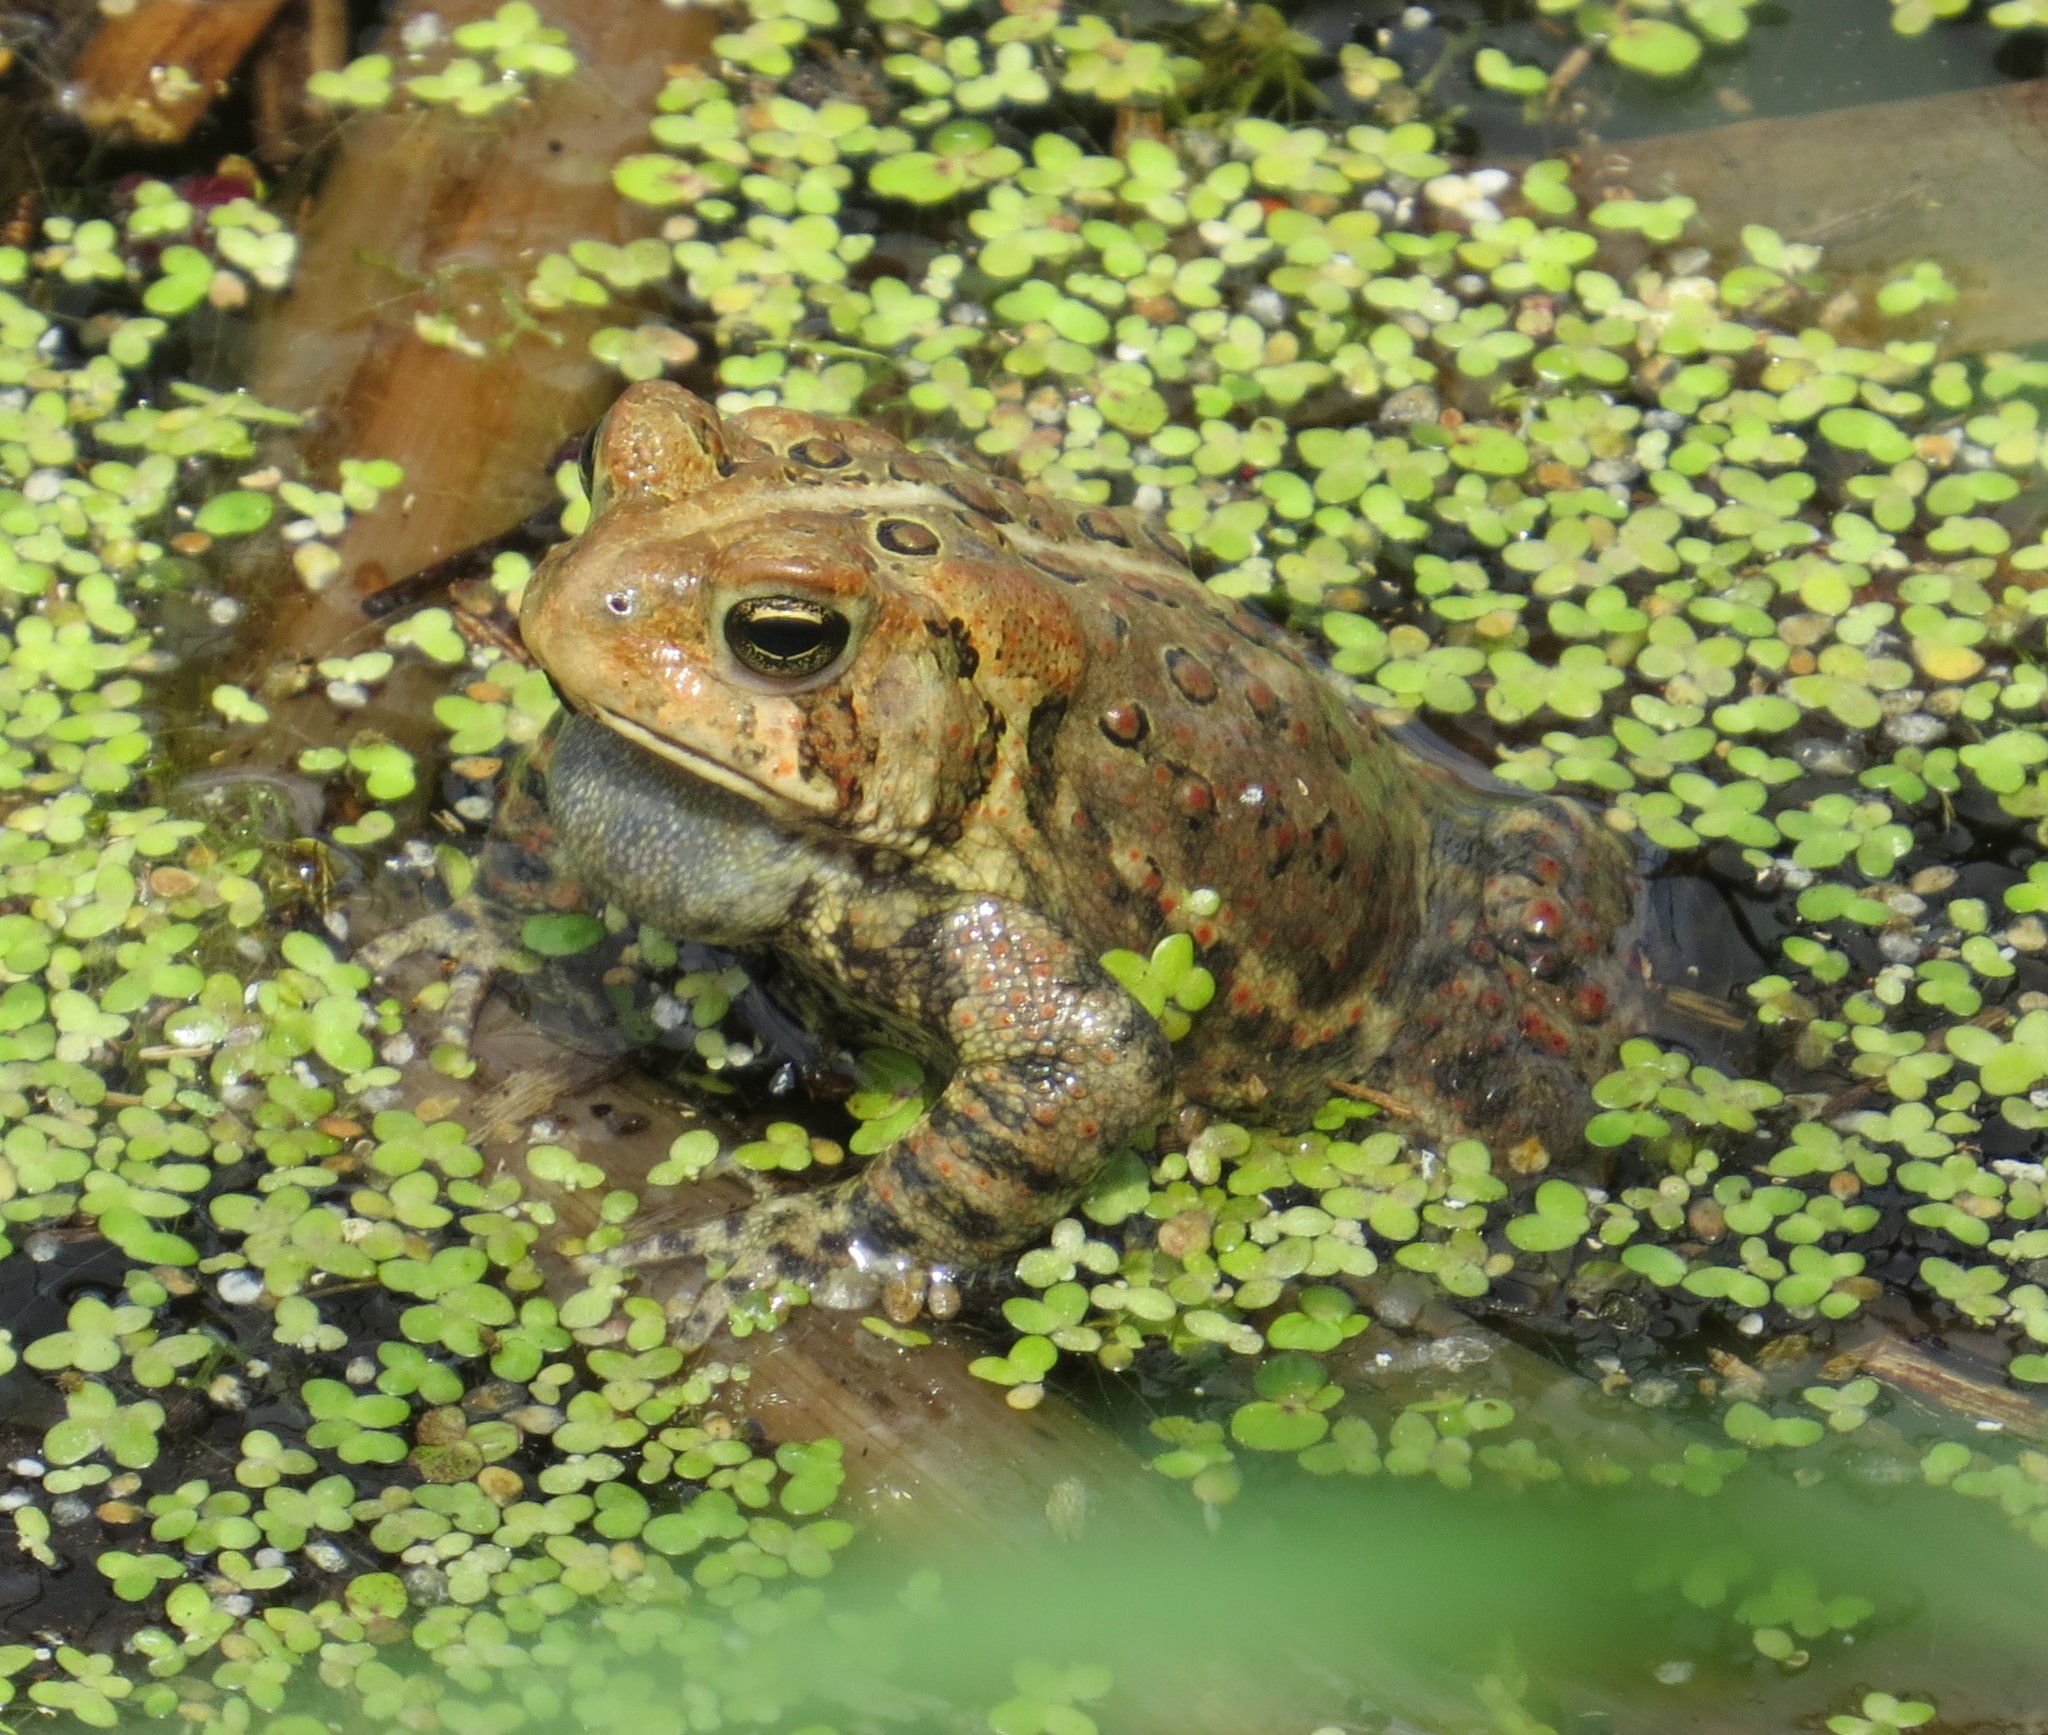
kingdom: Animalia
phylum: Chordata
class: Amphibia
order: Anura
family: Bufonidae
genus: Anaxyrus
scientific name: Anaxyrus americanus
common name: American toad
